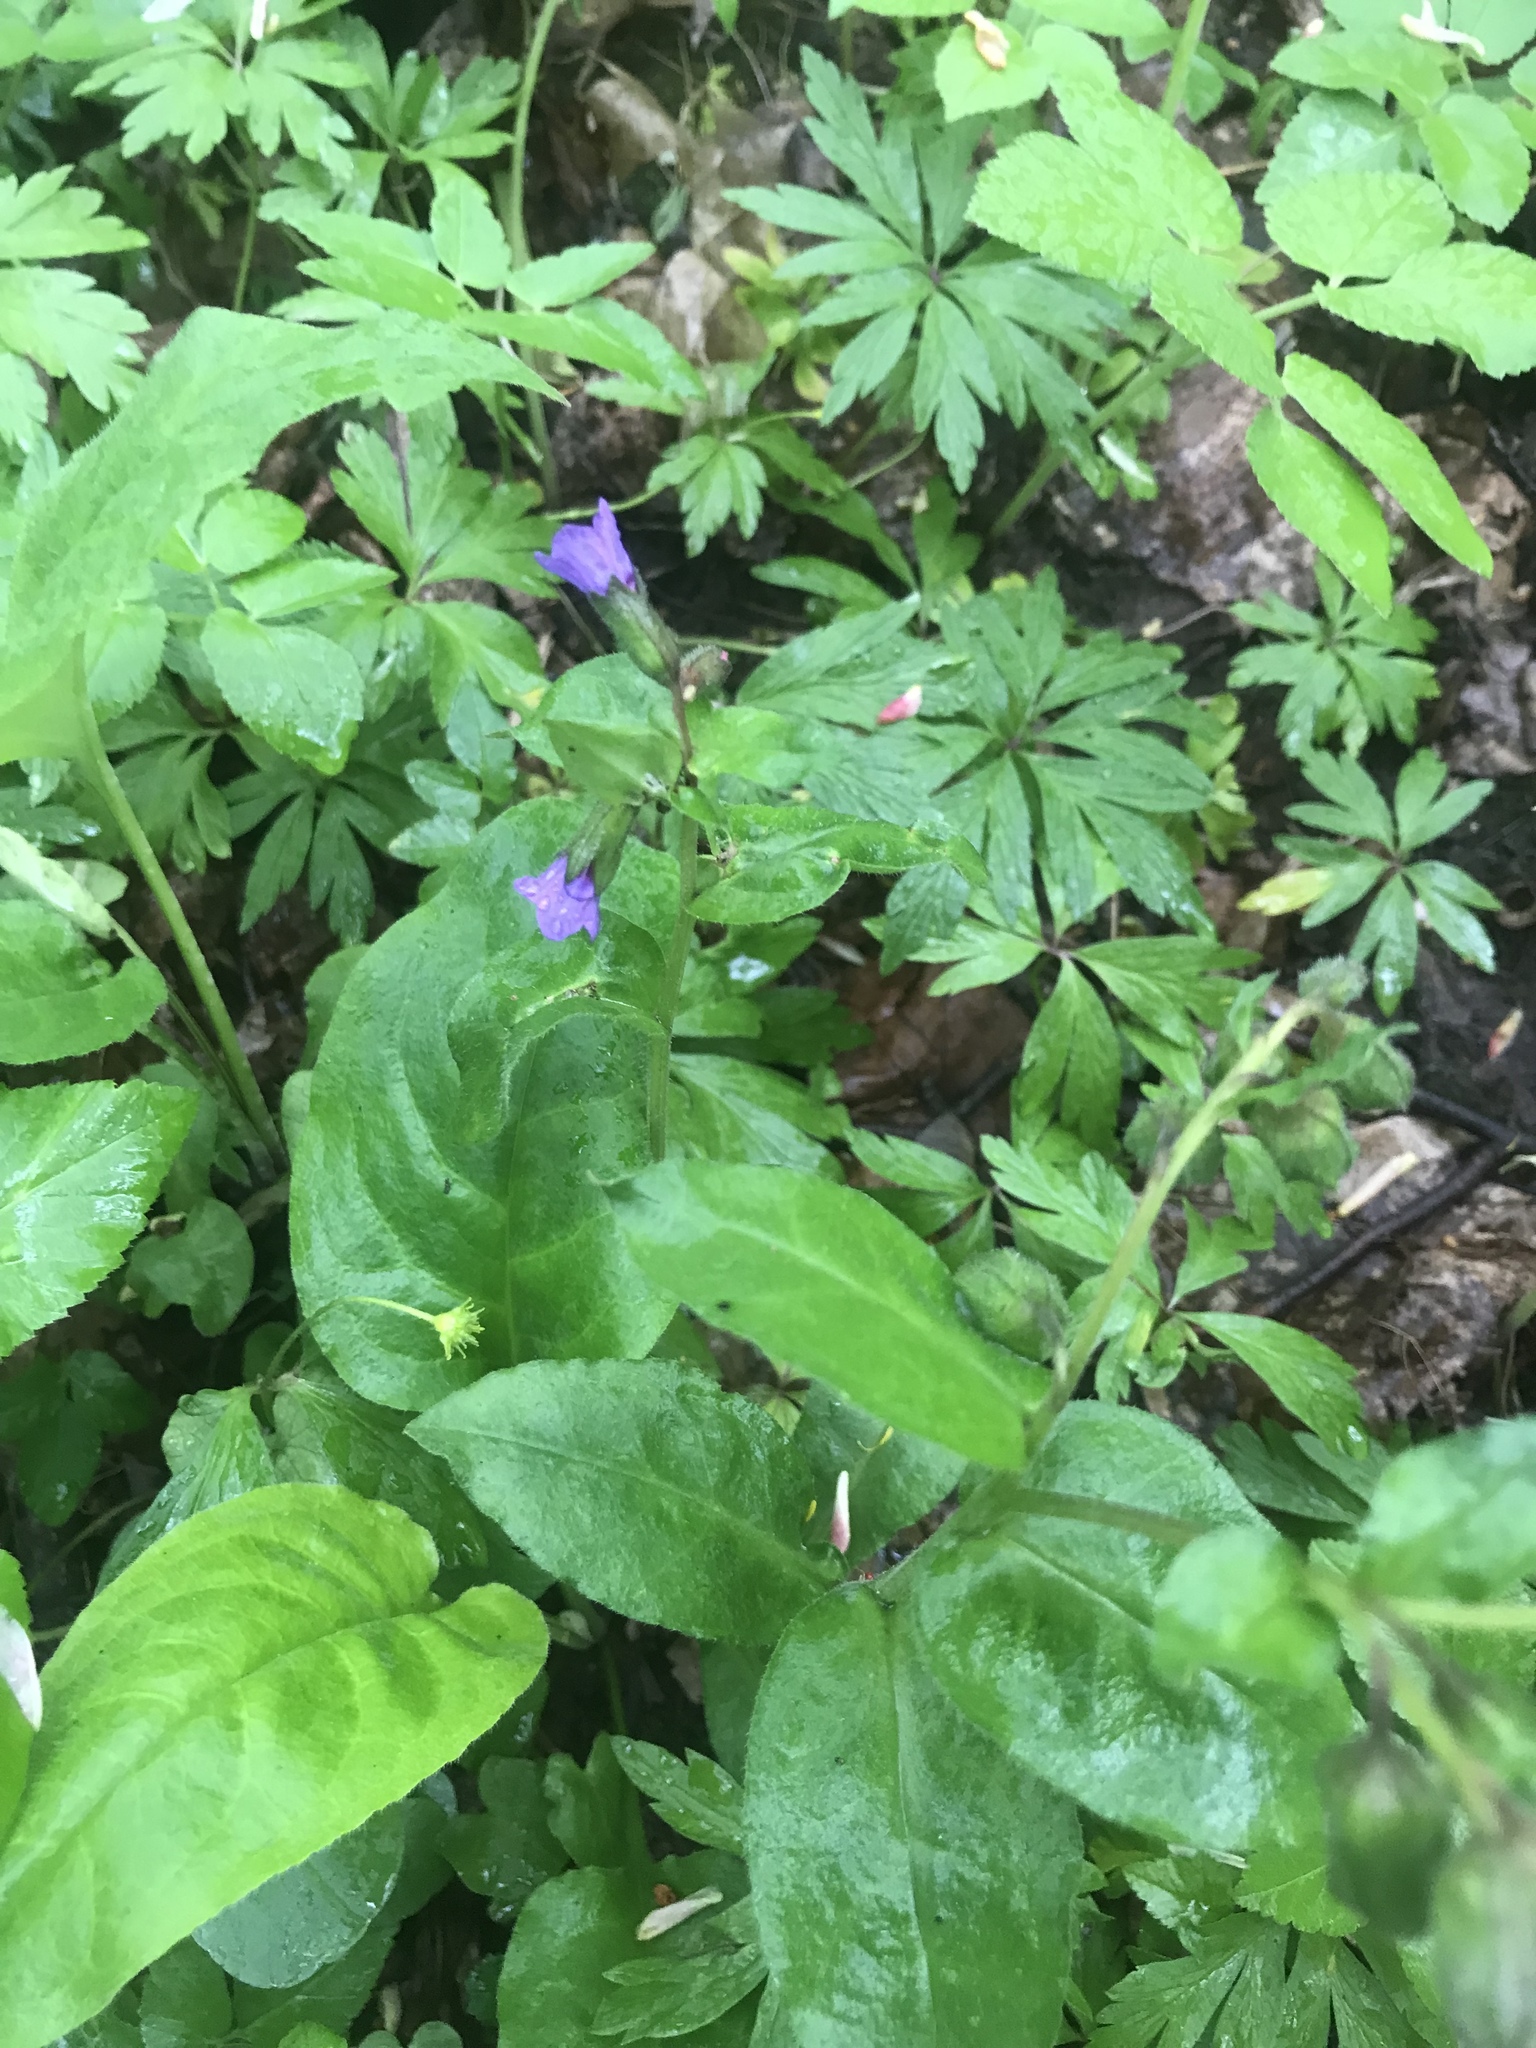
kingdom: Plantae
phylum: Tracheophyta
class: Magnoliopsida
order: Boraginales
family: Boraginaceae
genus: Pulmonaria
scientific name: Pulmonaria obscura
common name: Suffolk lungwort
